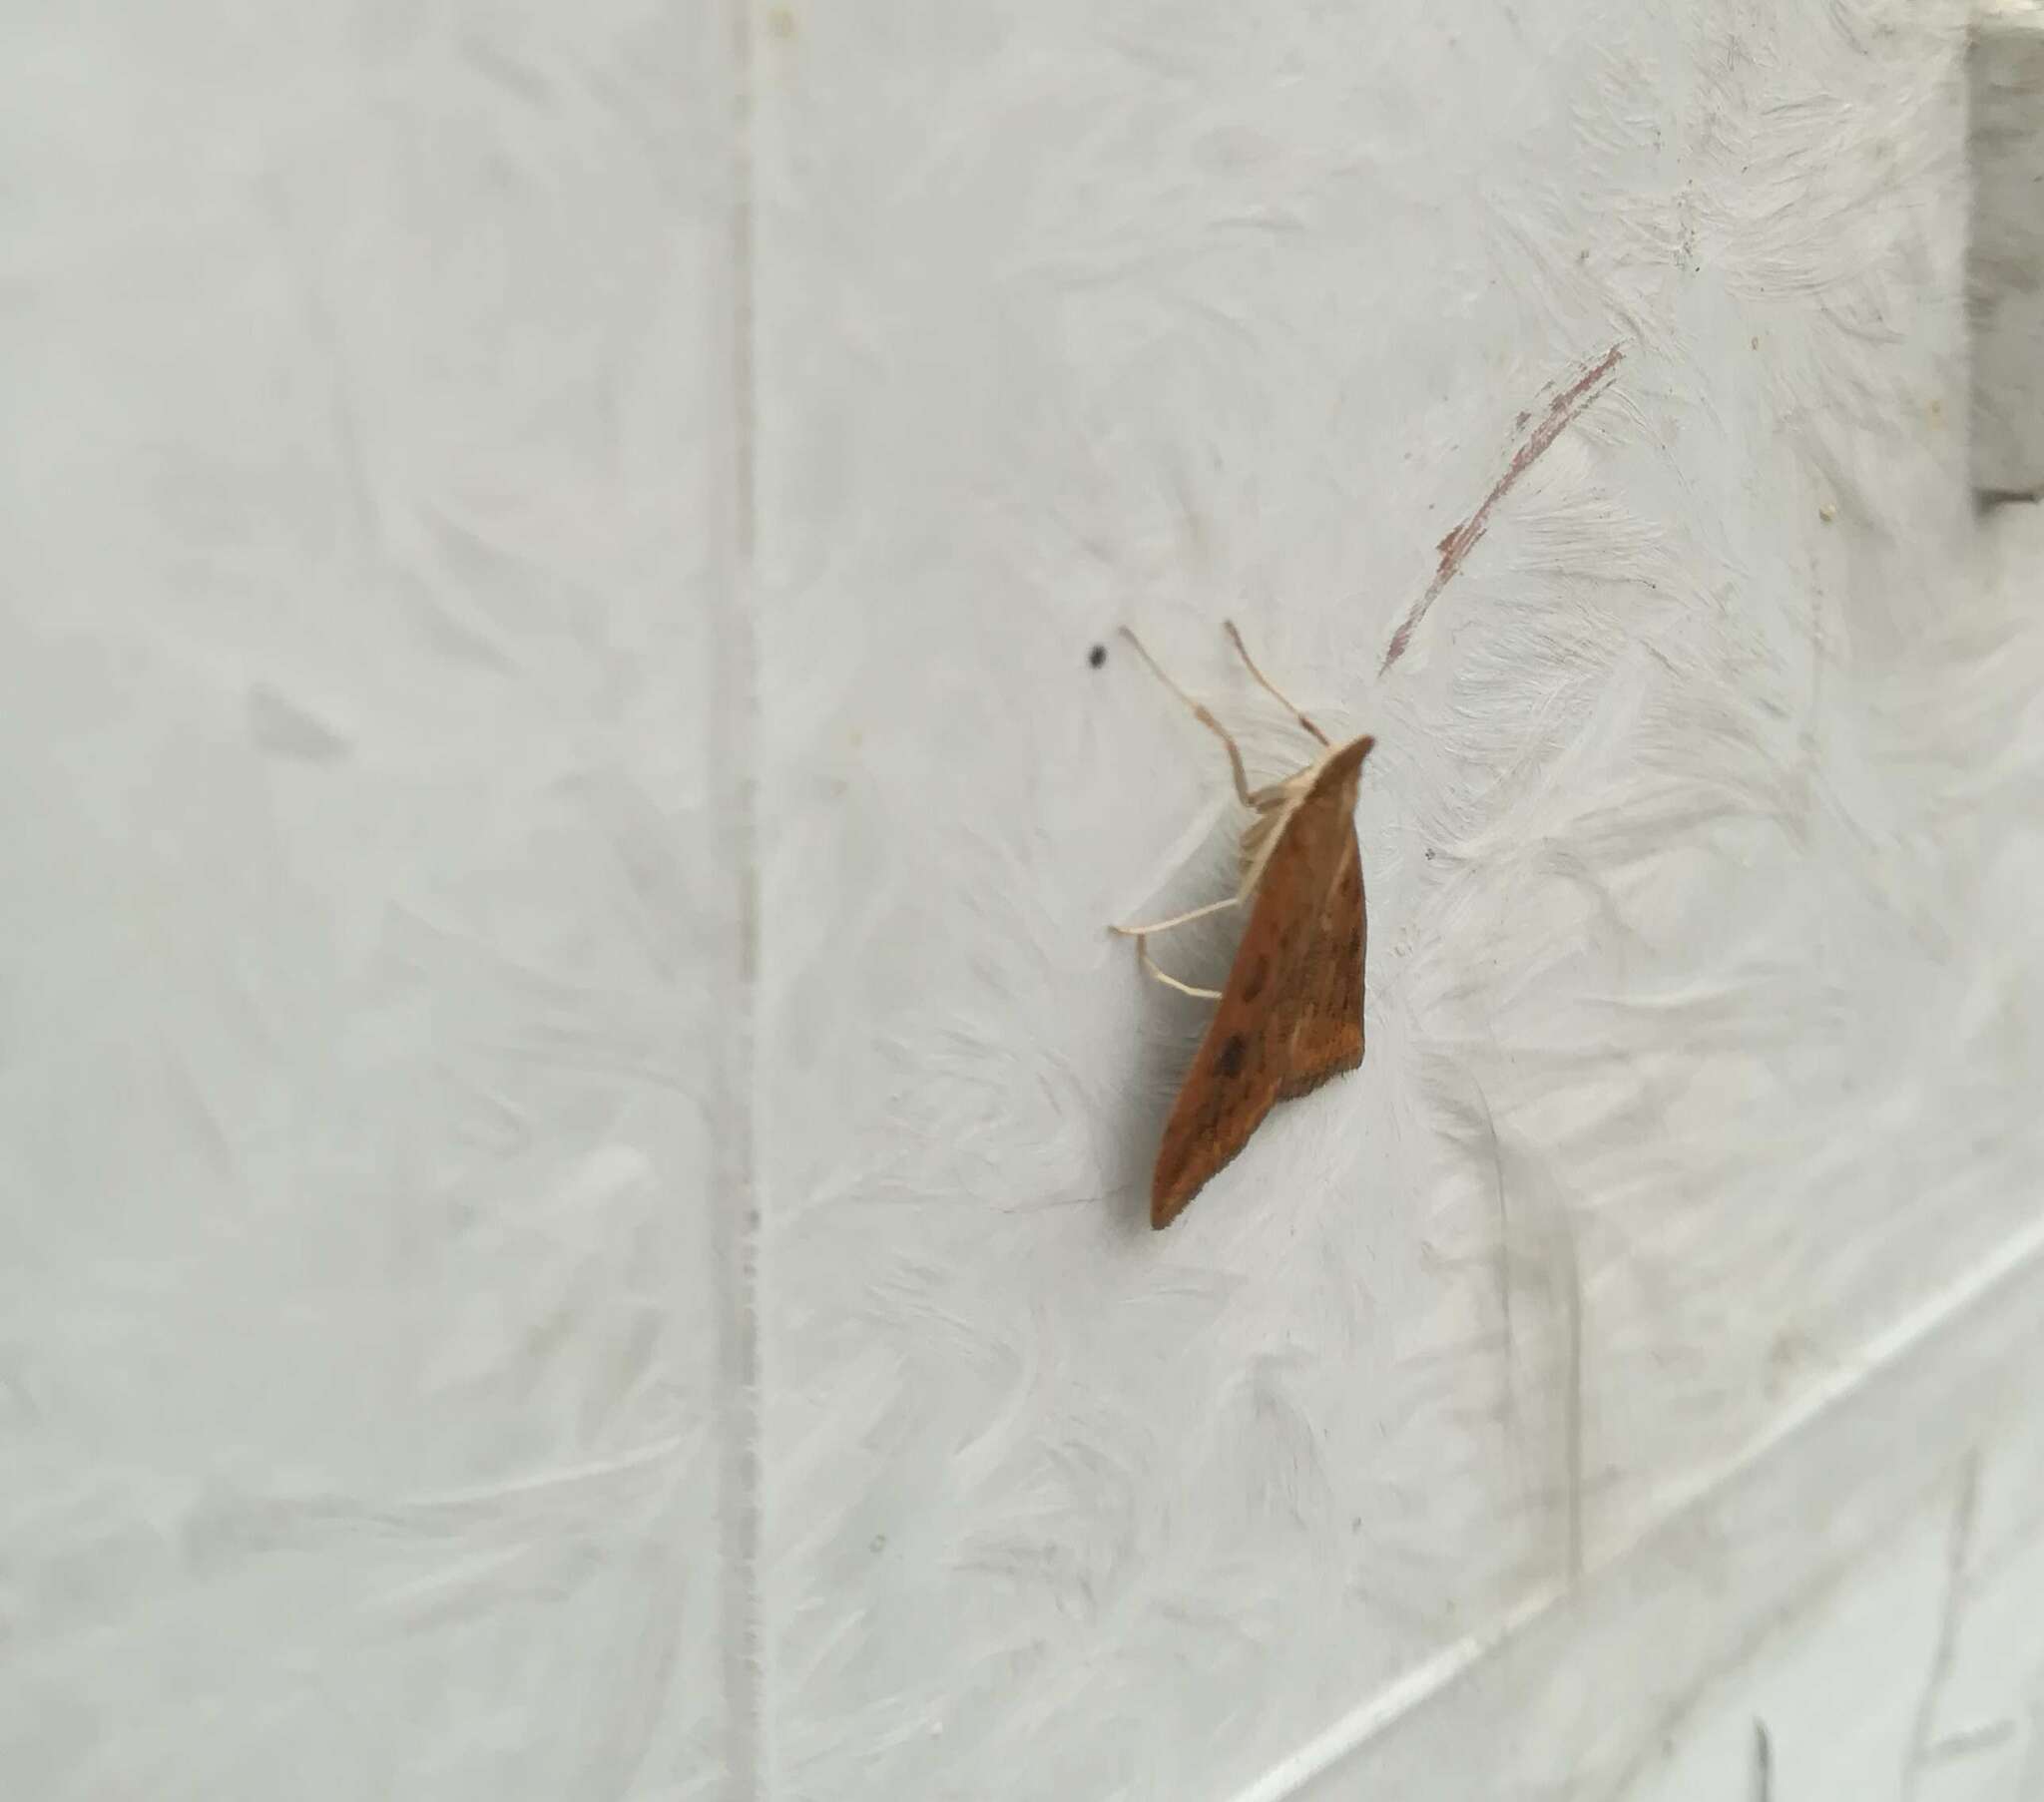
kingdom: Animalia
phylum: Arthropoda
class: Insecta
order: Lepidoptera
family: Crambidae
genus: Udea
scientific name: Udea ferrugalis
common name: Rusty dot
